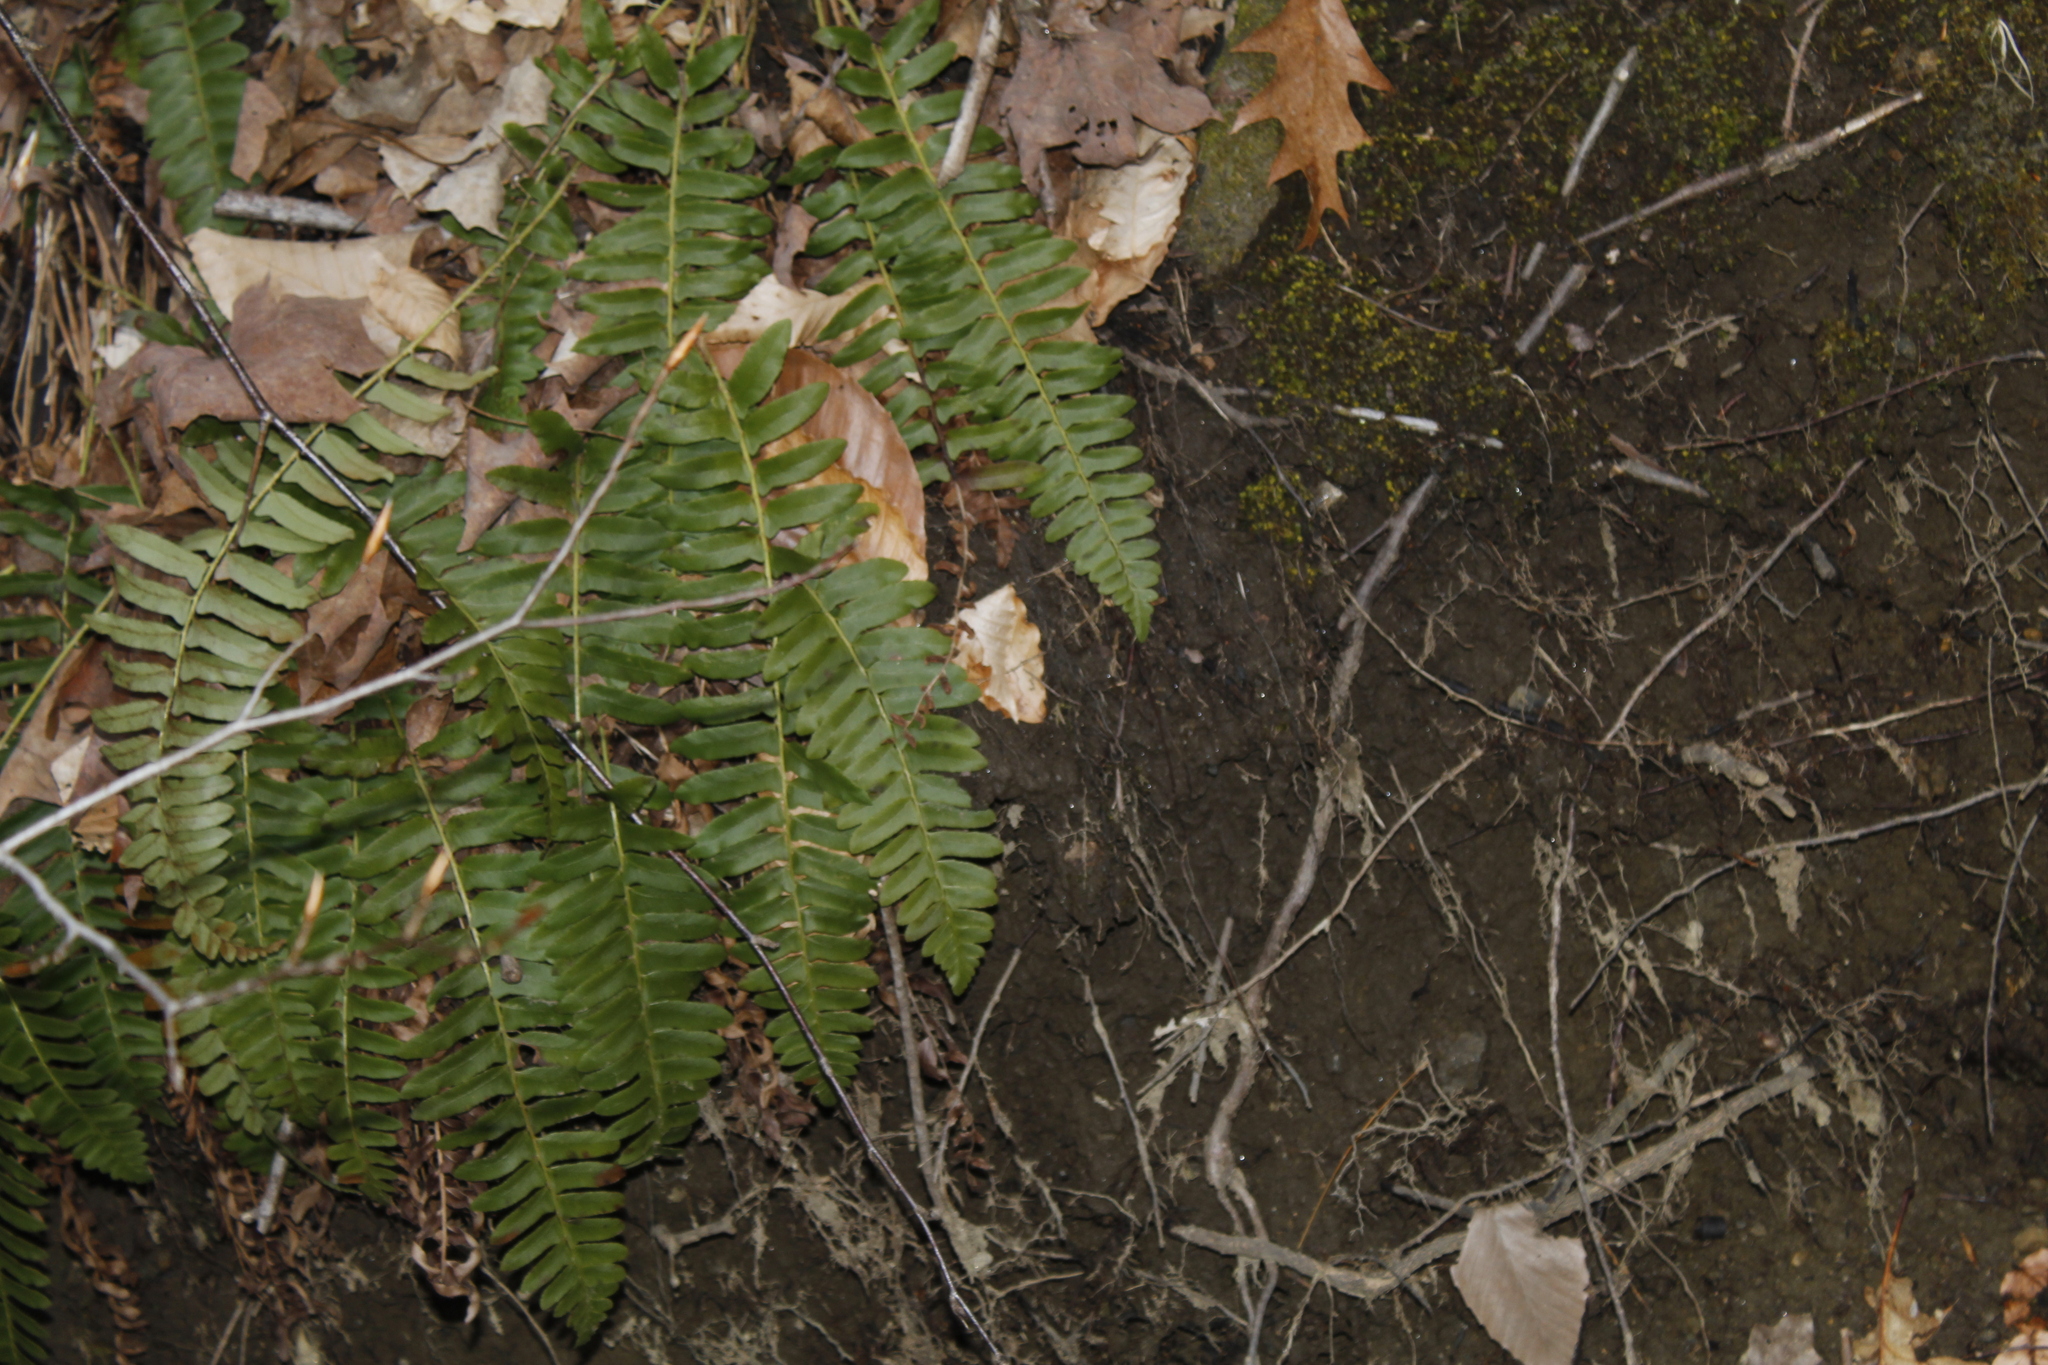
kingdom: Plantae
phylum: Tracheophyta
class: Polypodiopsida
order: Polypodiales
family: Dryopteridaceae
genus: Polystichum
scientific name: Polystichum acrostichoides
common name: Christmas fern
